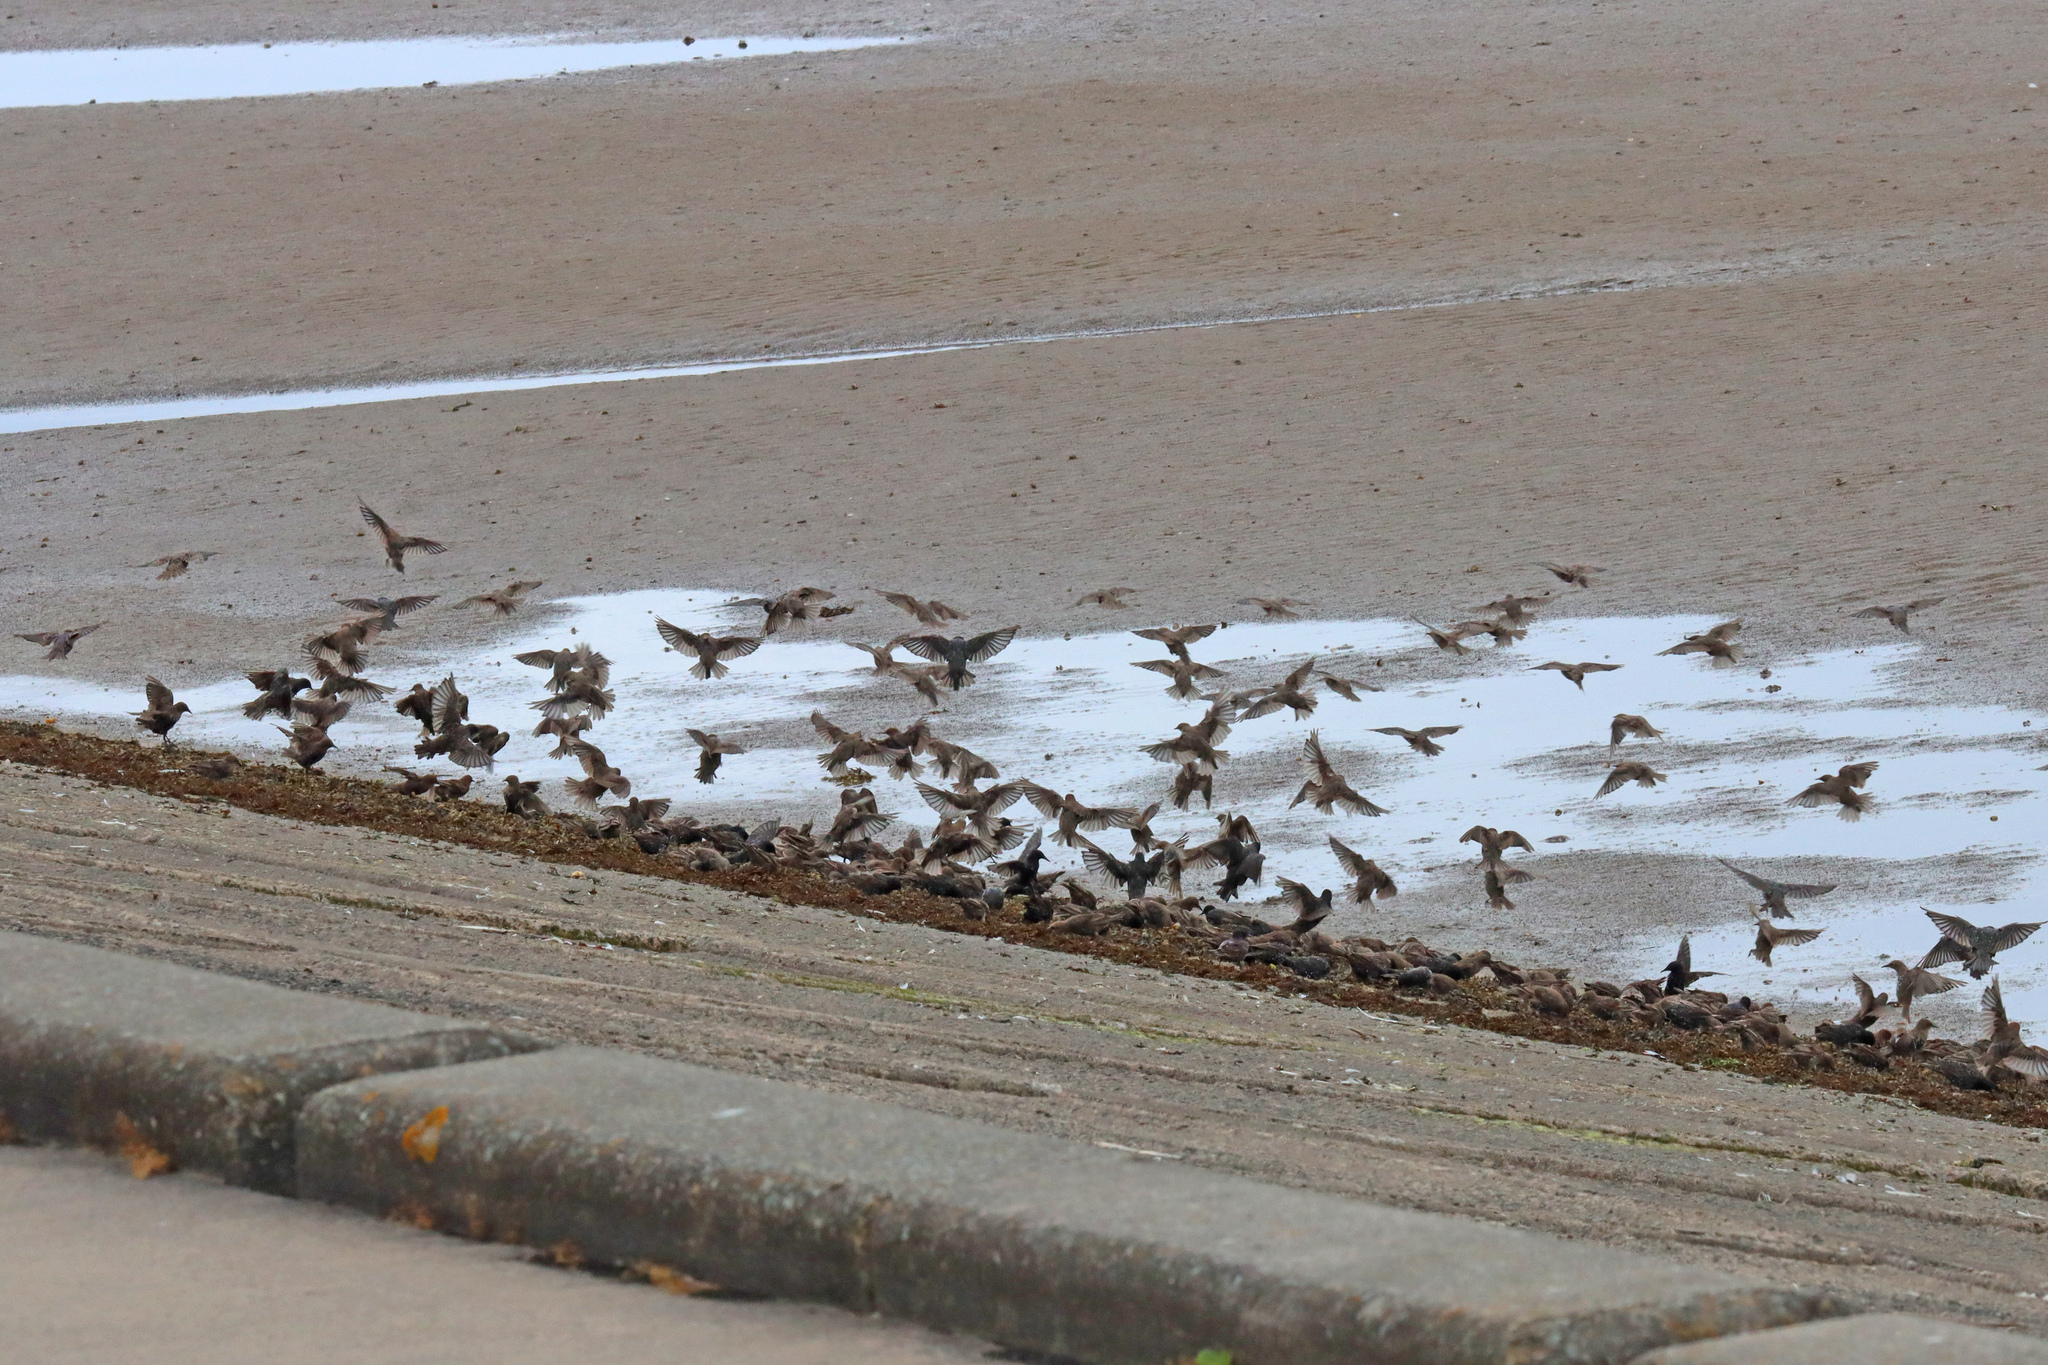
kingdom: Animalia
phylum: Chordata
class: Aves
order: Passeriformes
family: Sturnidae
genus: Sturnus
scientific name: Sturnus vulgaris
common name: Common starling
